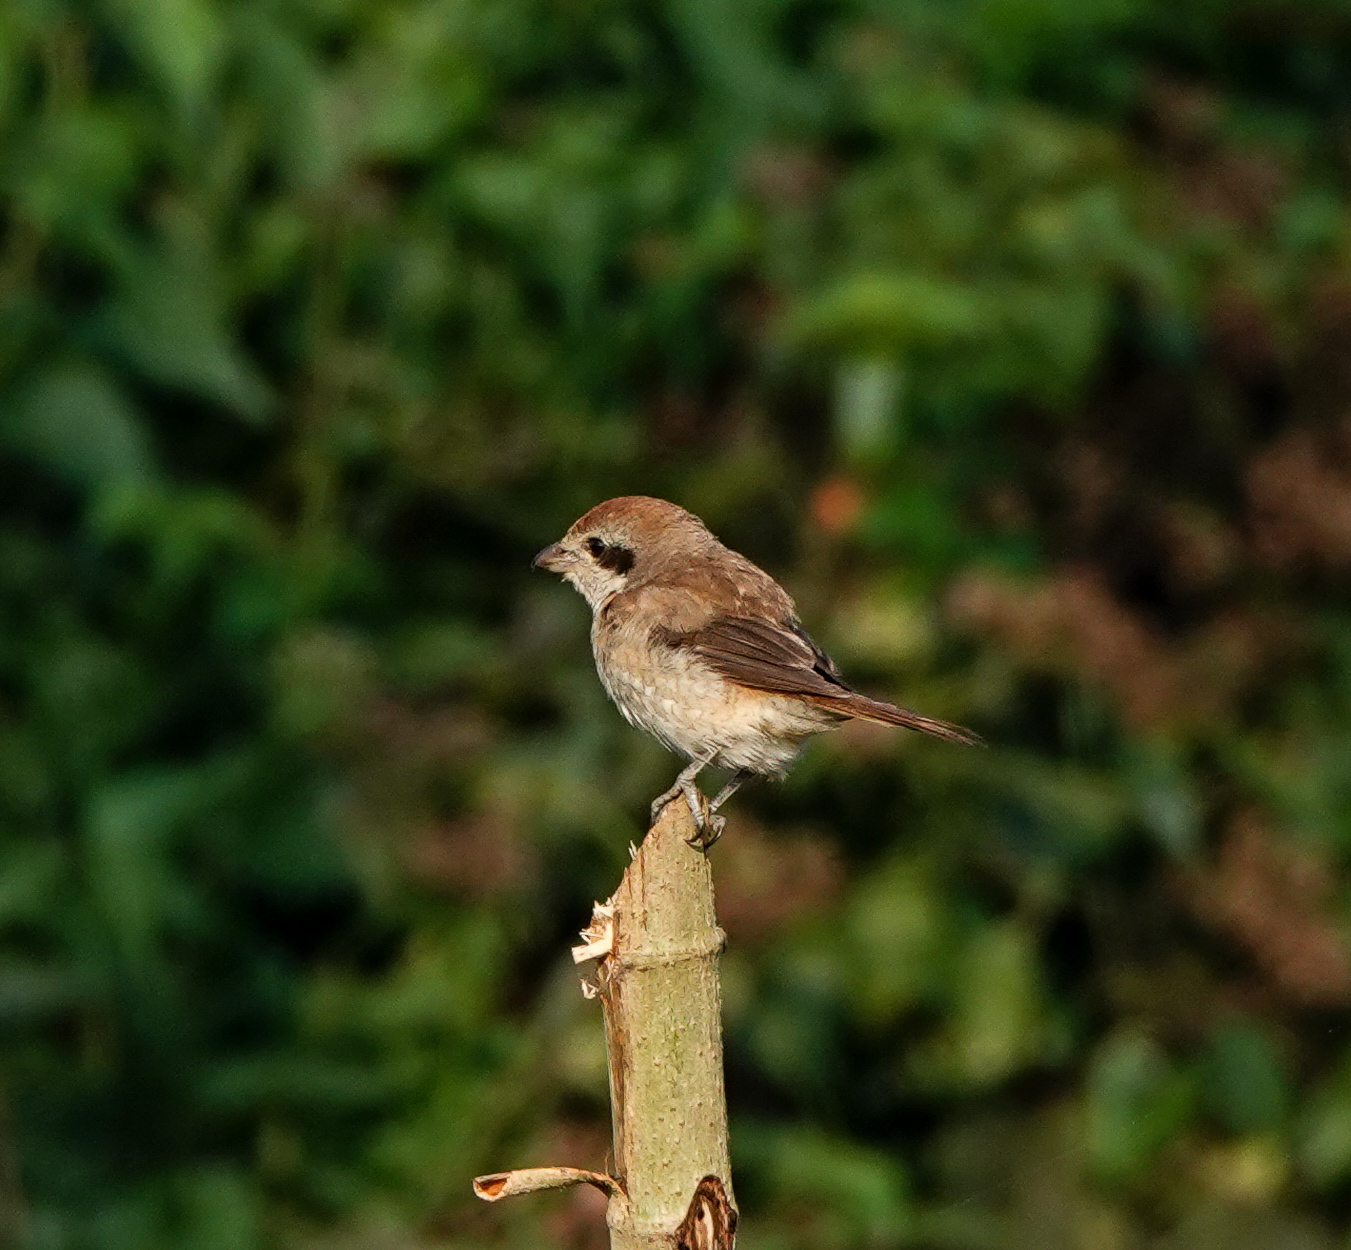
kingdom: Animalia
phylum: Chordata
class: Aves
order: Passeriformes
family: Laniidae
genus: Lanius
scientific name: Lanius cristatus
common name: Brown shrike
